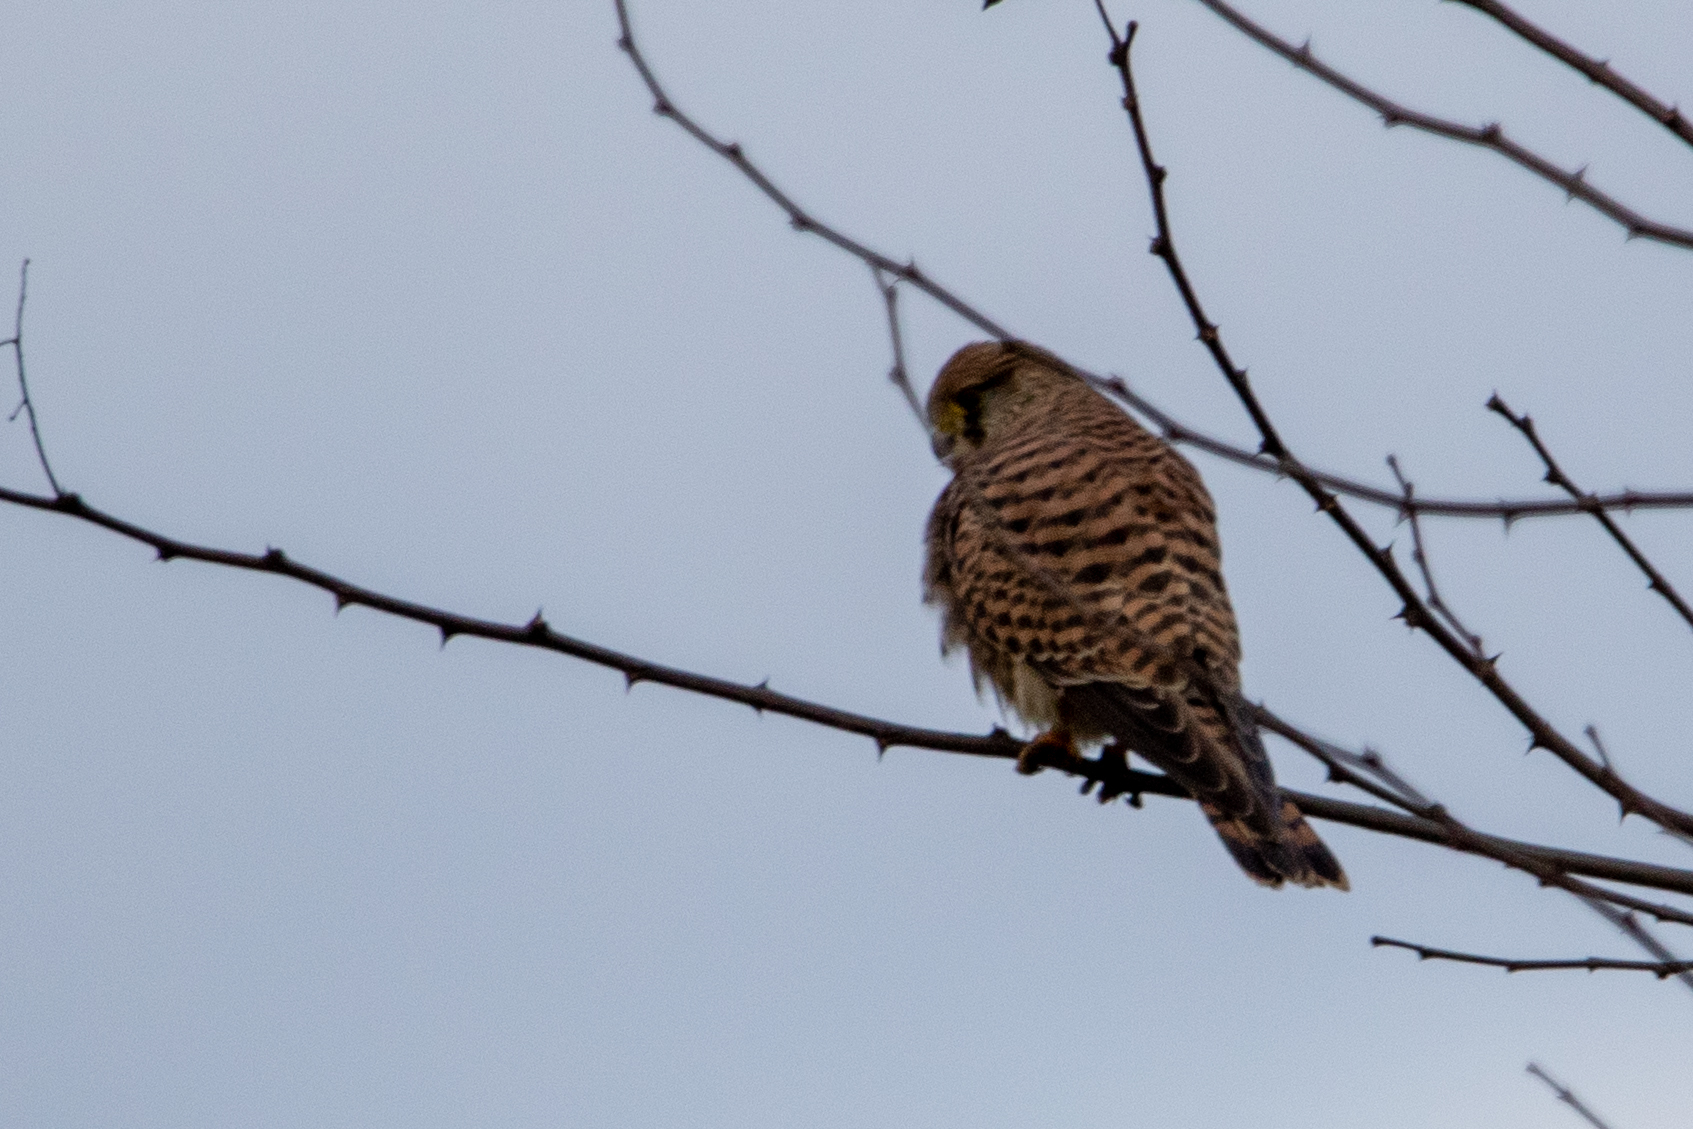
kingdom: Animalia
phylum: Chordata
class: Aves
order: Falconiformes
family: Falconidae
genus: Falco
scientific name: Falco tinnunculus
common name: Common kestrel
